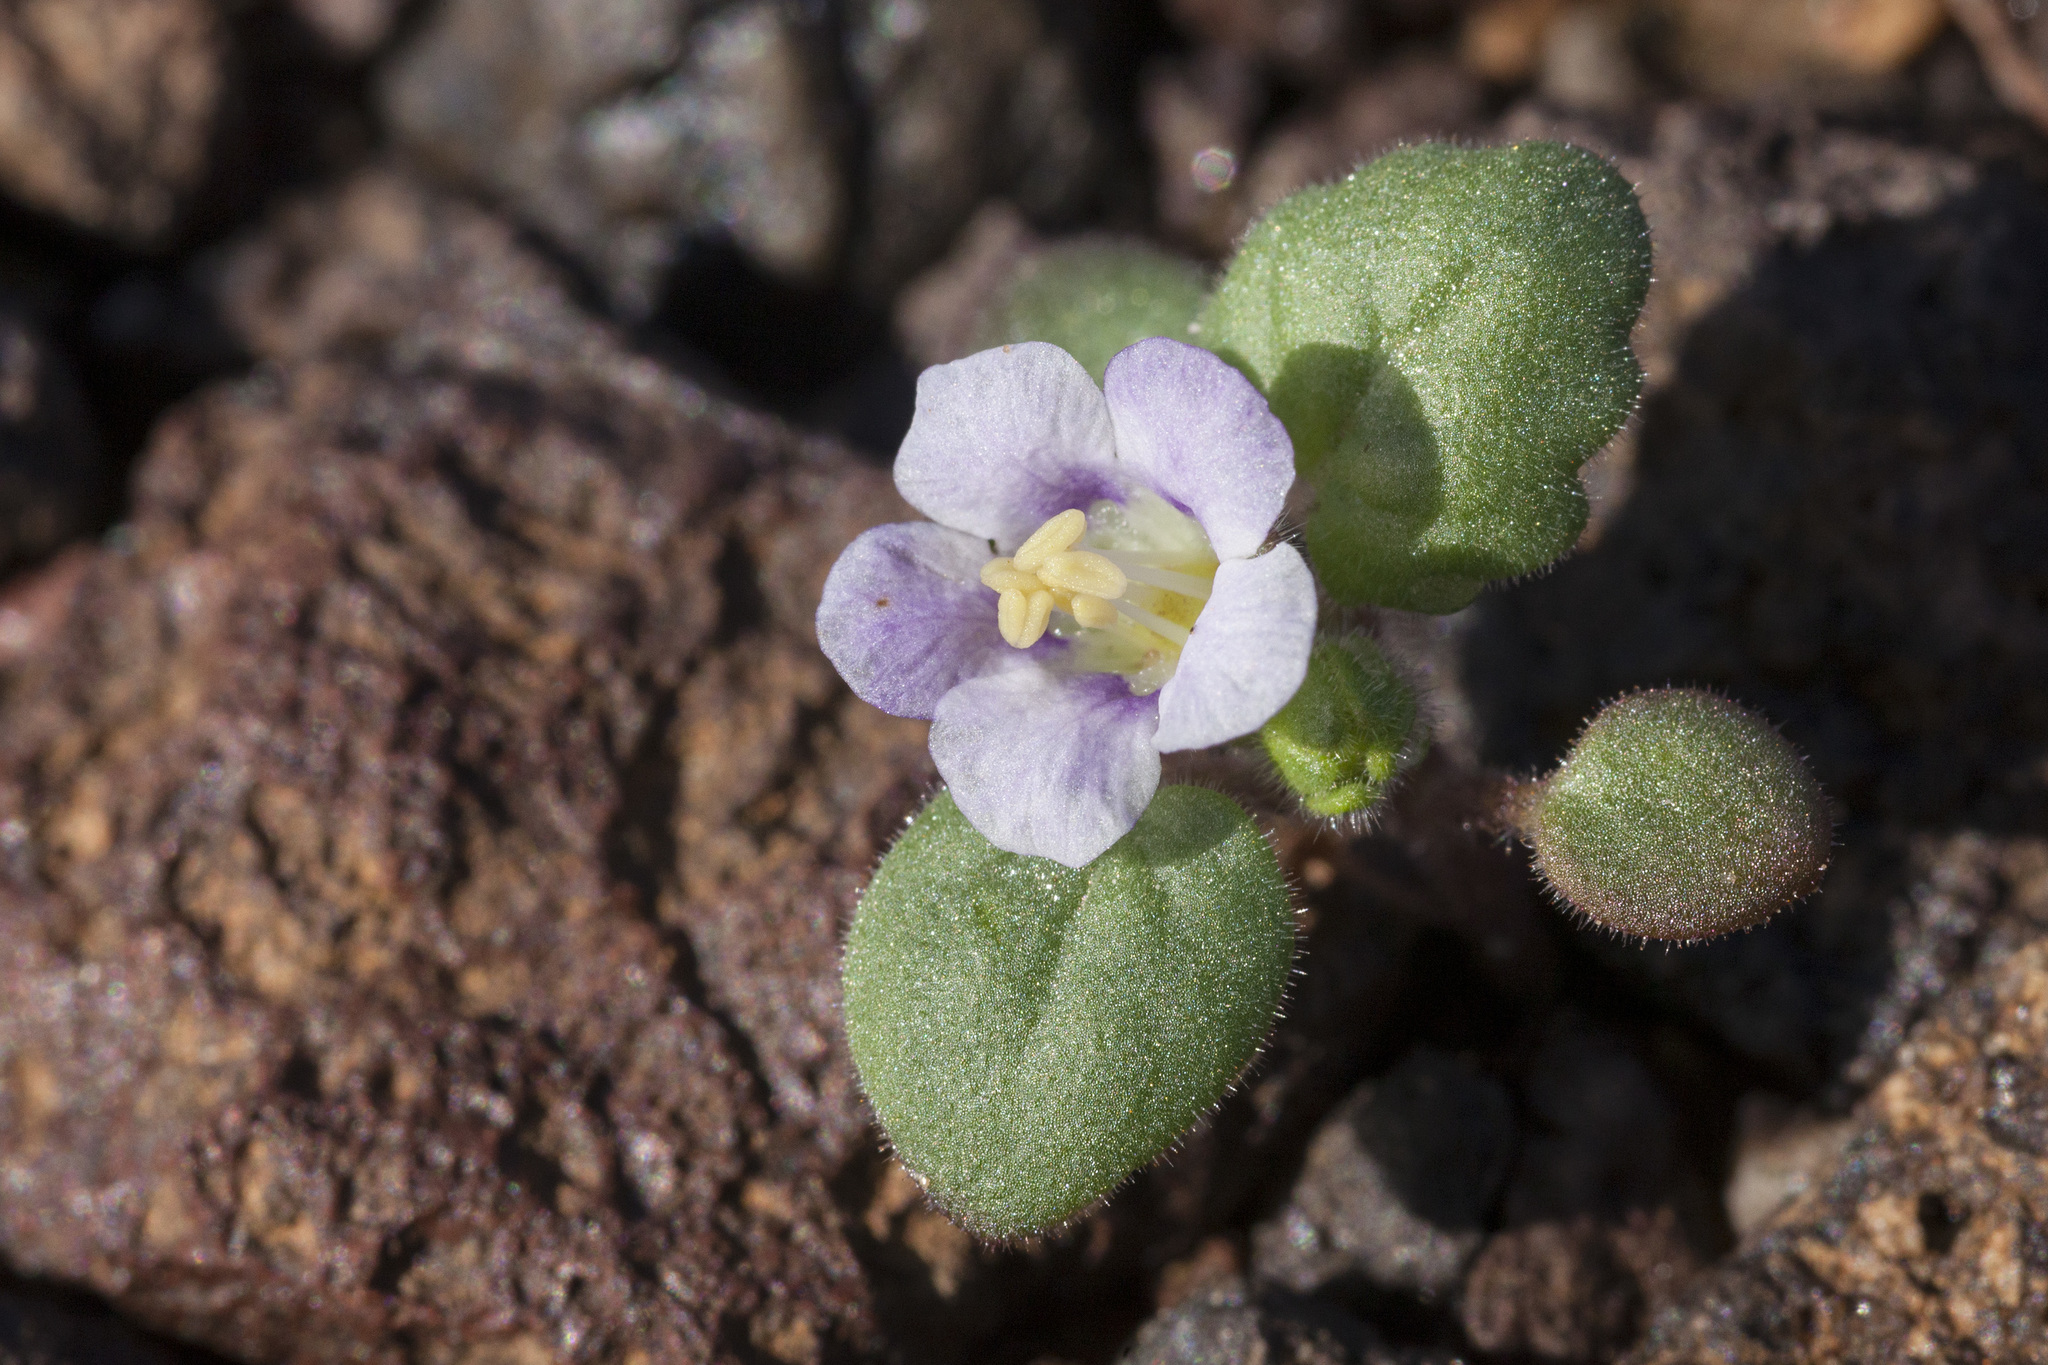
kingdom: Plantae
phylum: Tracheophyta
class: Magnoliopsida
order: Boraginales
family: Hydrophyllaceae
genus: Phacelia
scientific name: Phacelia neglecta
